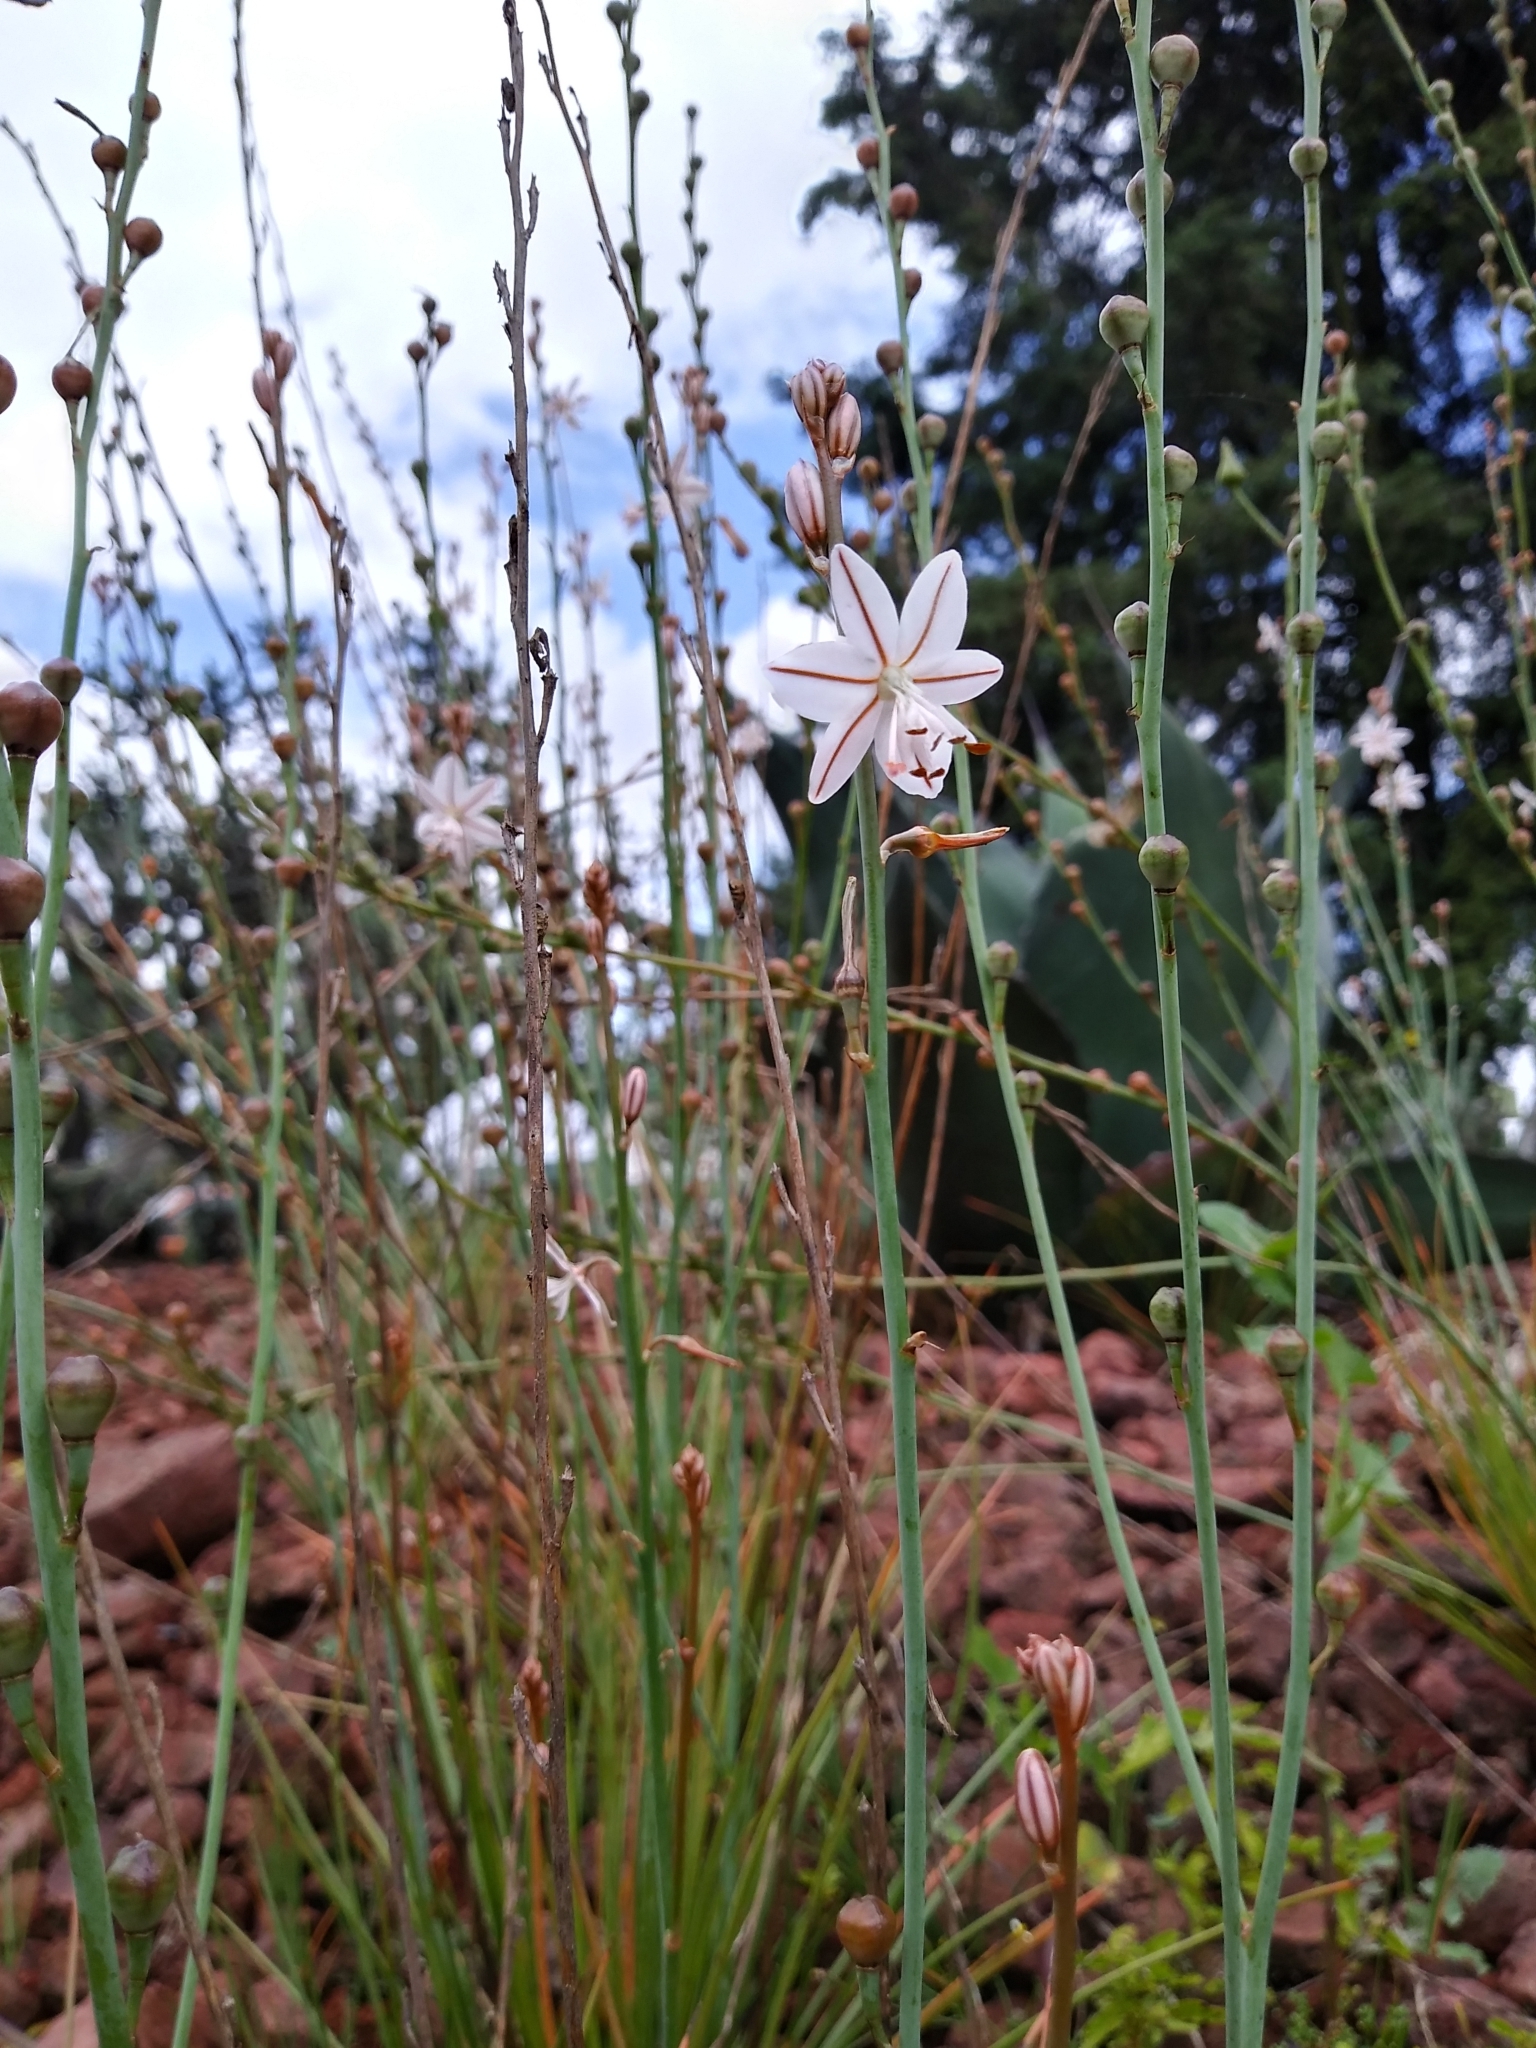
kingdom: Plantae
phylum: Tracheophyta
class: Liliopsida
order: Asparagales
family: Asphodelaceae
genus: Asphodelus
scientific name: Asphodelus fistulosus
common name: Onionweed
